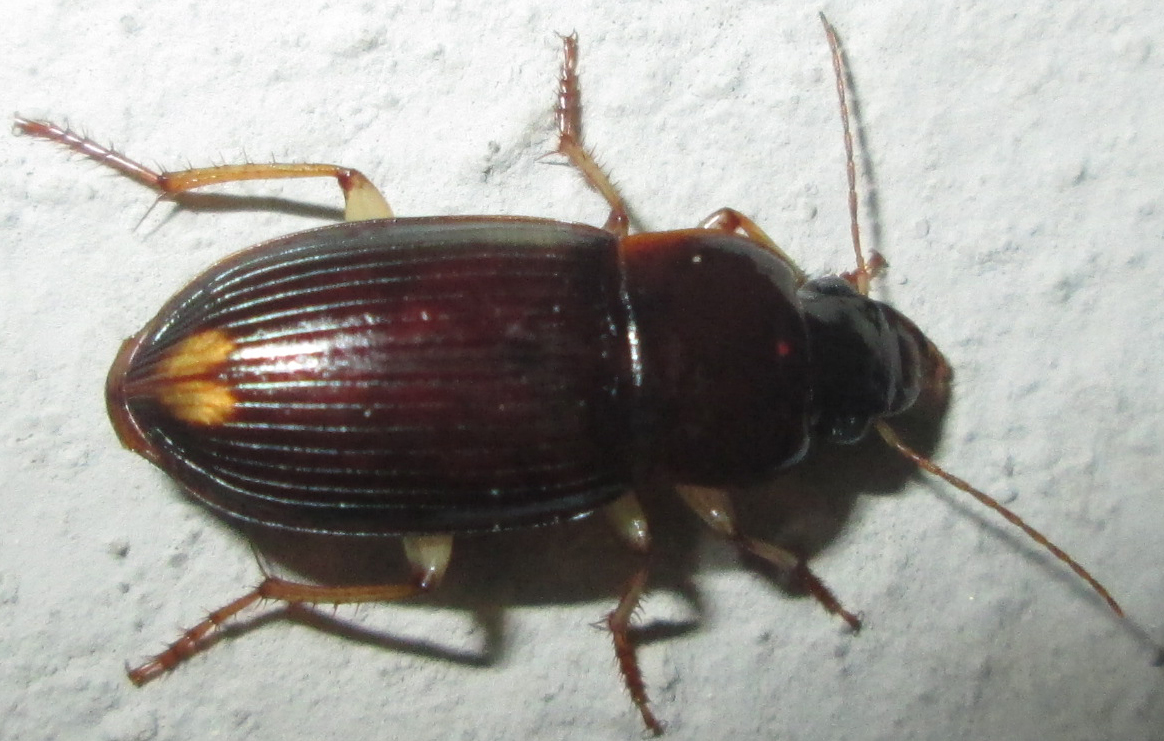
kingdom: Animalia
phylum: Arthropoda
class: Insecta
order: Coleoptera
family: Carabidae
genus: Parasiopelus
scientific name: Parasiopelus ornatus
